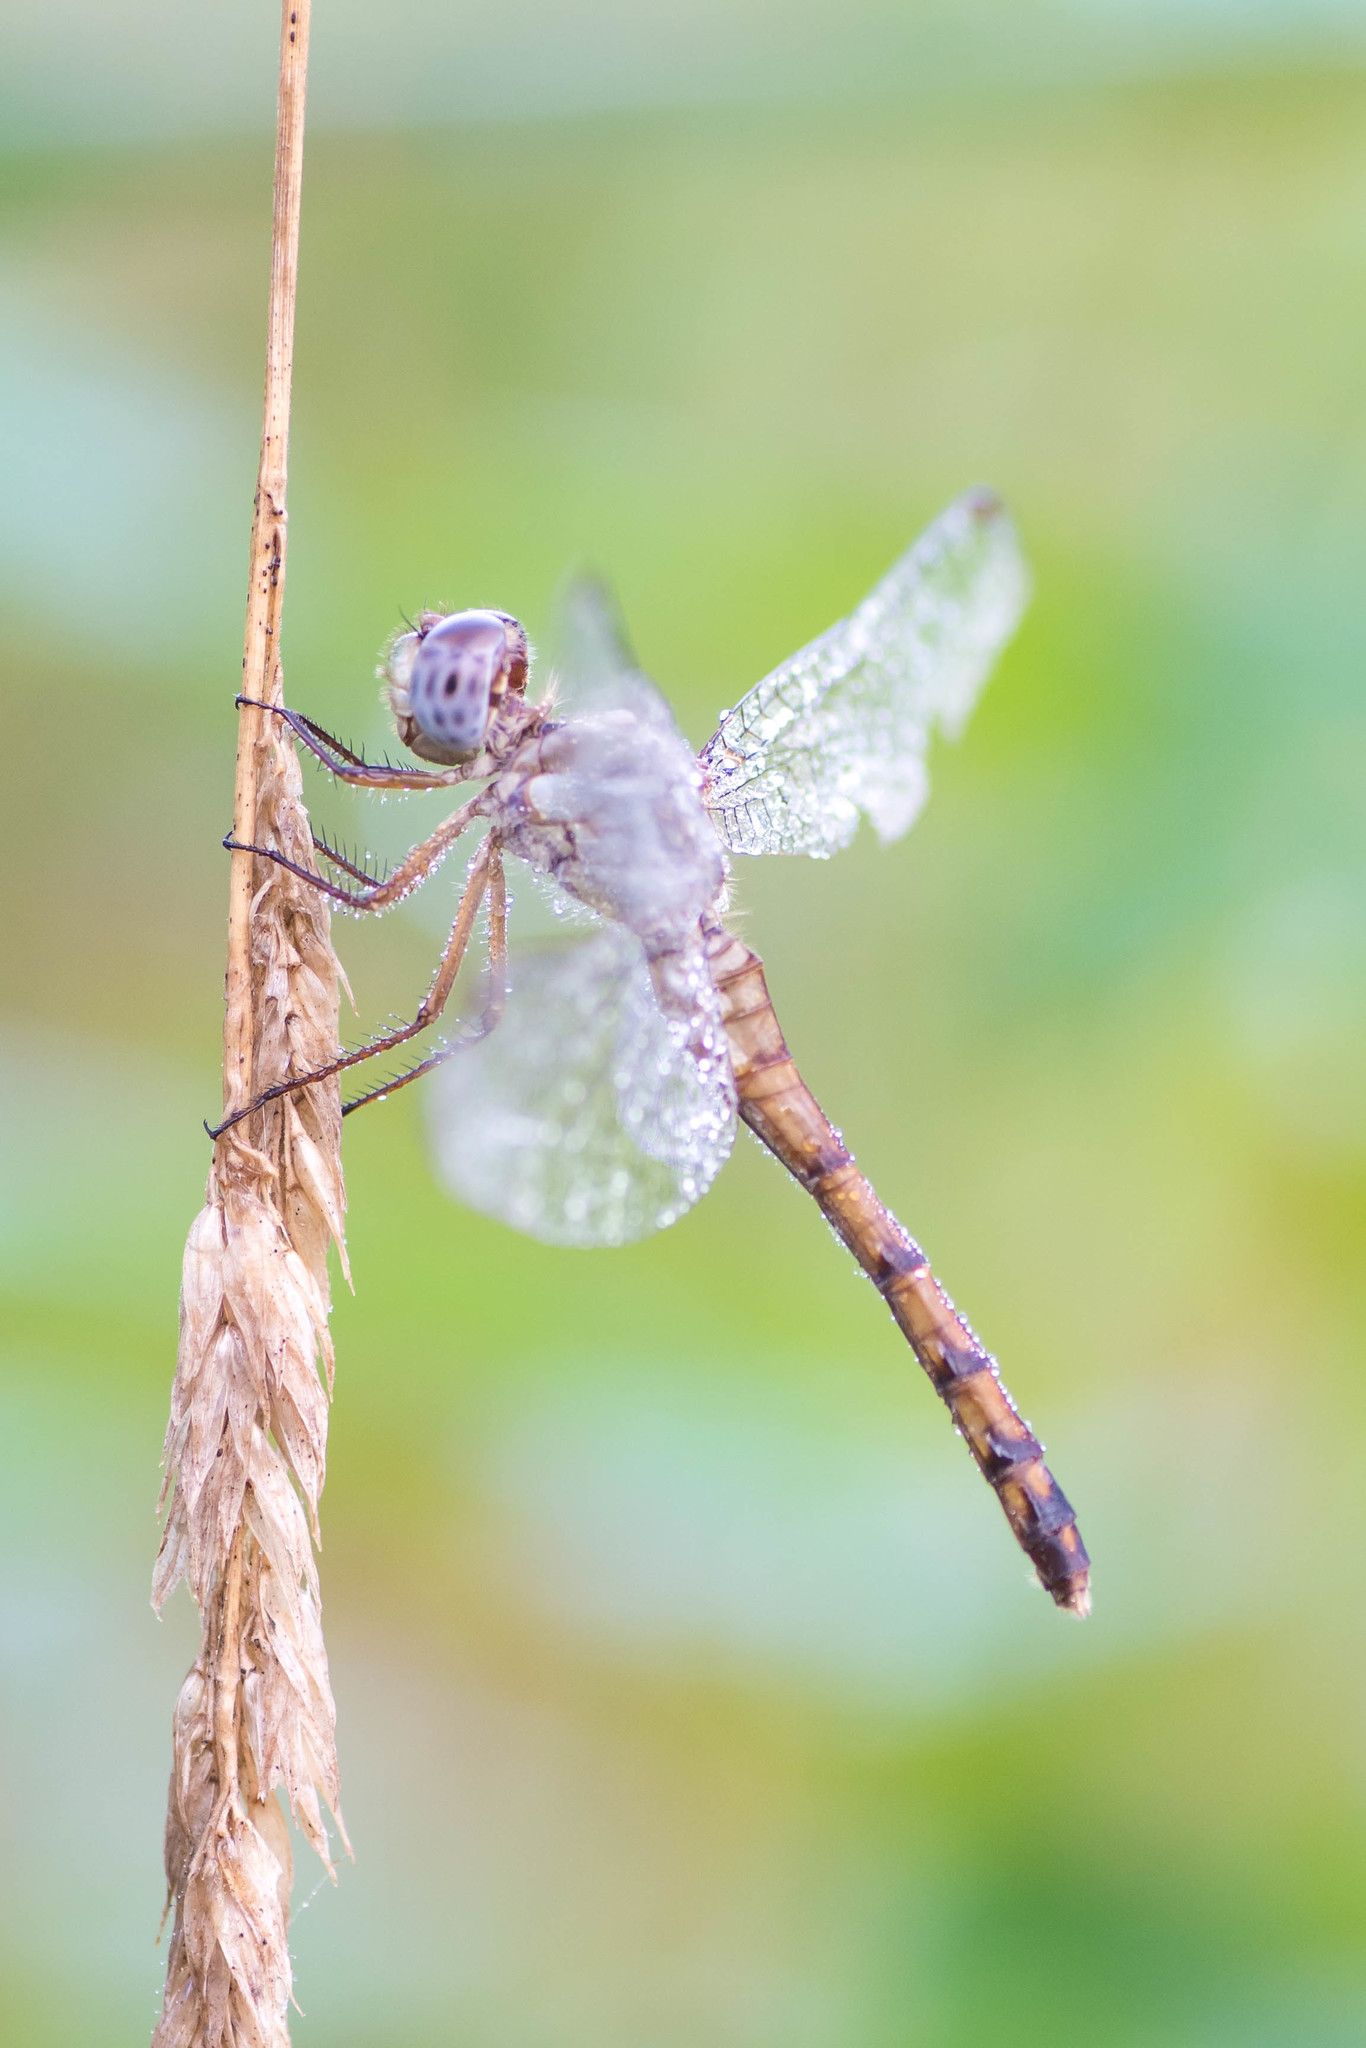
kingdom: Animalia
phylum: Arthropoda
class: Insecta
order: Odonata
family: Libellulidae
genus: Sympetrum
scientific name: Sympetrum ambiguum
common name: Blue-faced meadowhawk
